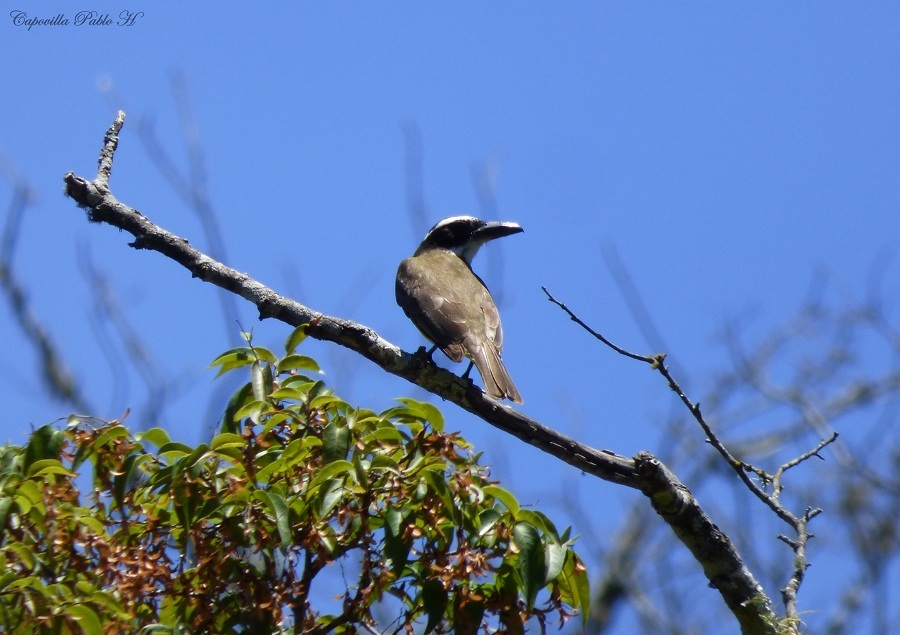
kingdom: Animalia
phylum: Chordata
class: Aves
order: Passeriformes
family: Tyrannidae
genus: Megarynchus
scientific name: Megarynchus pitangua
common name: Boat-billed flycatcher
